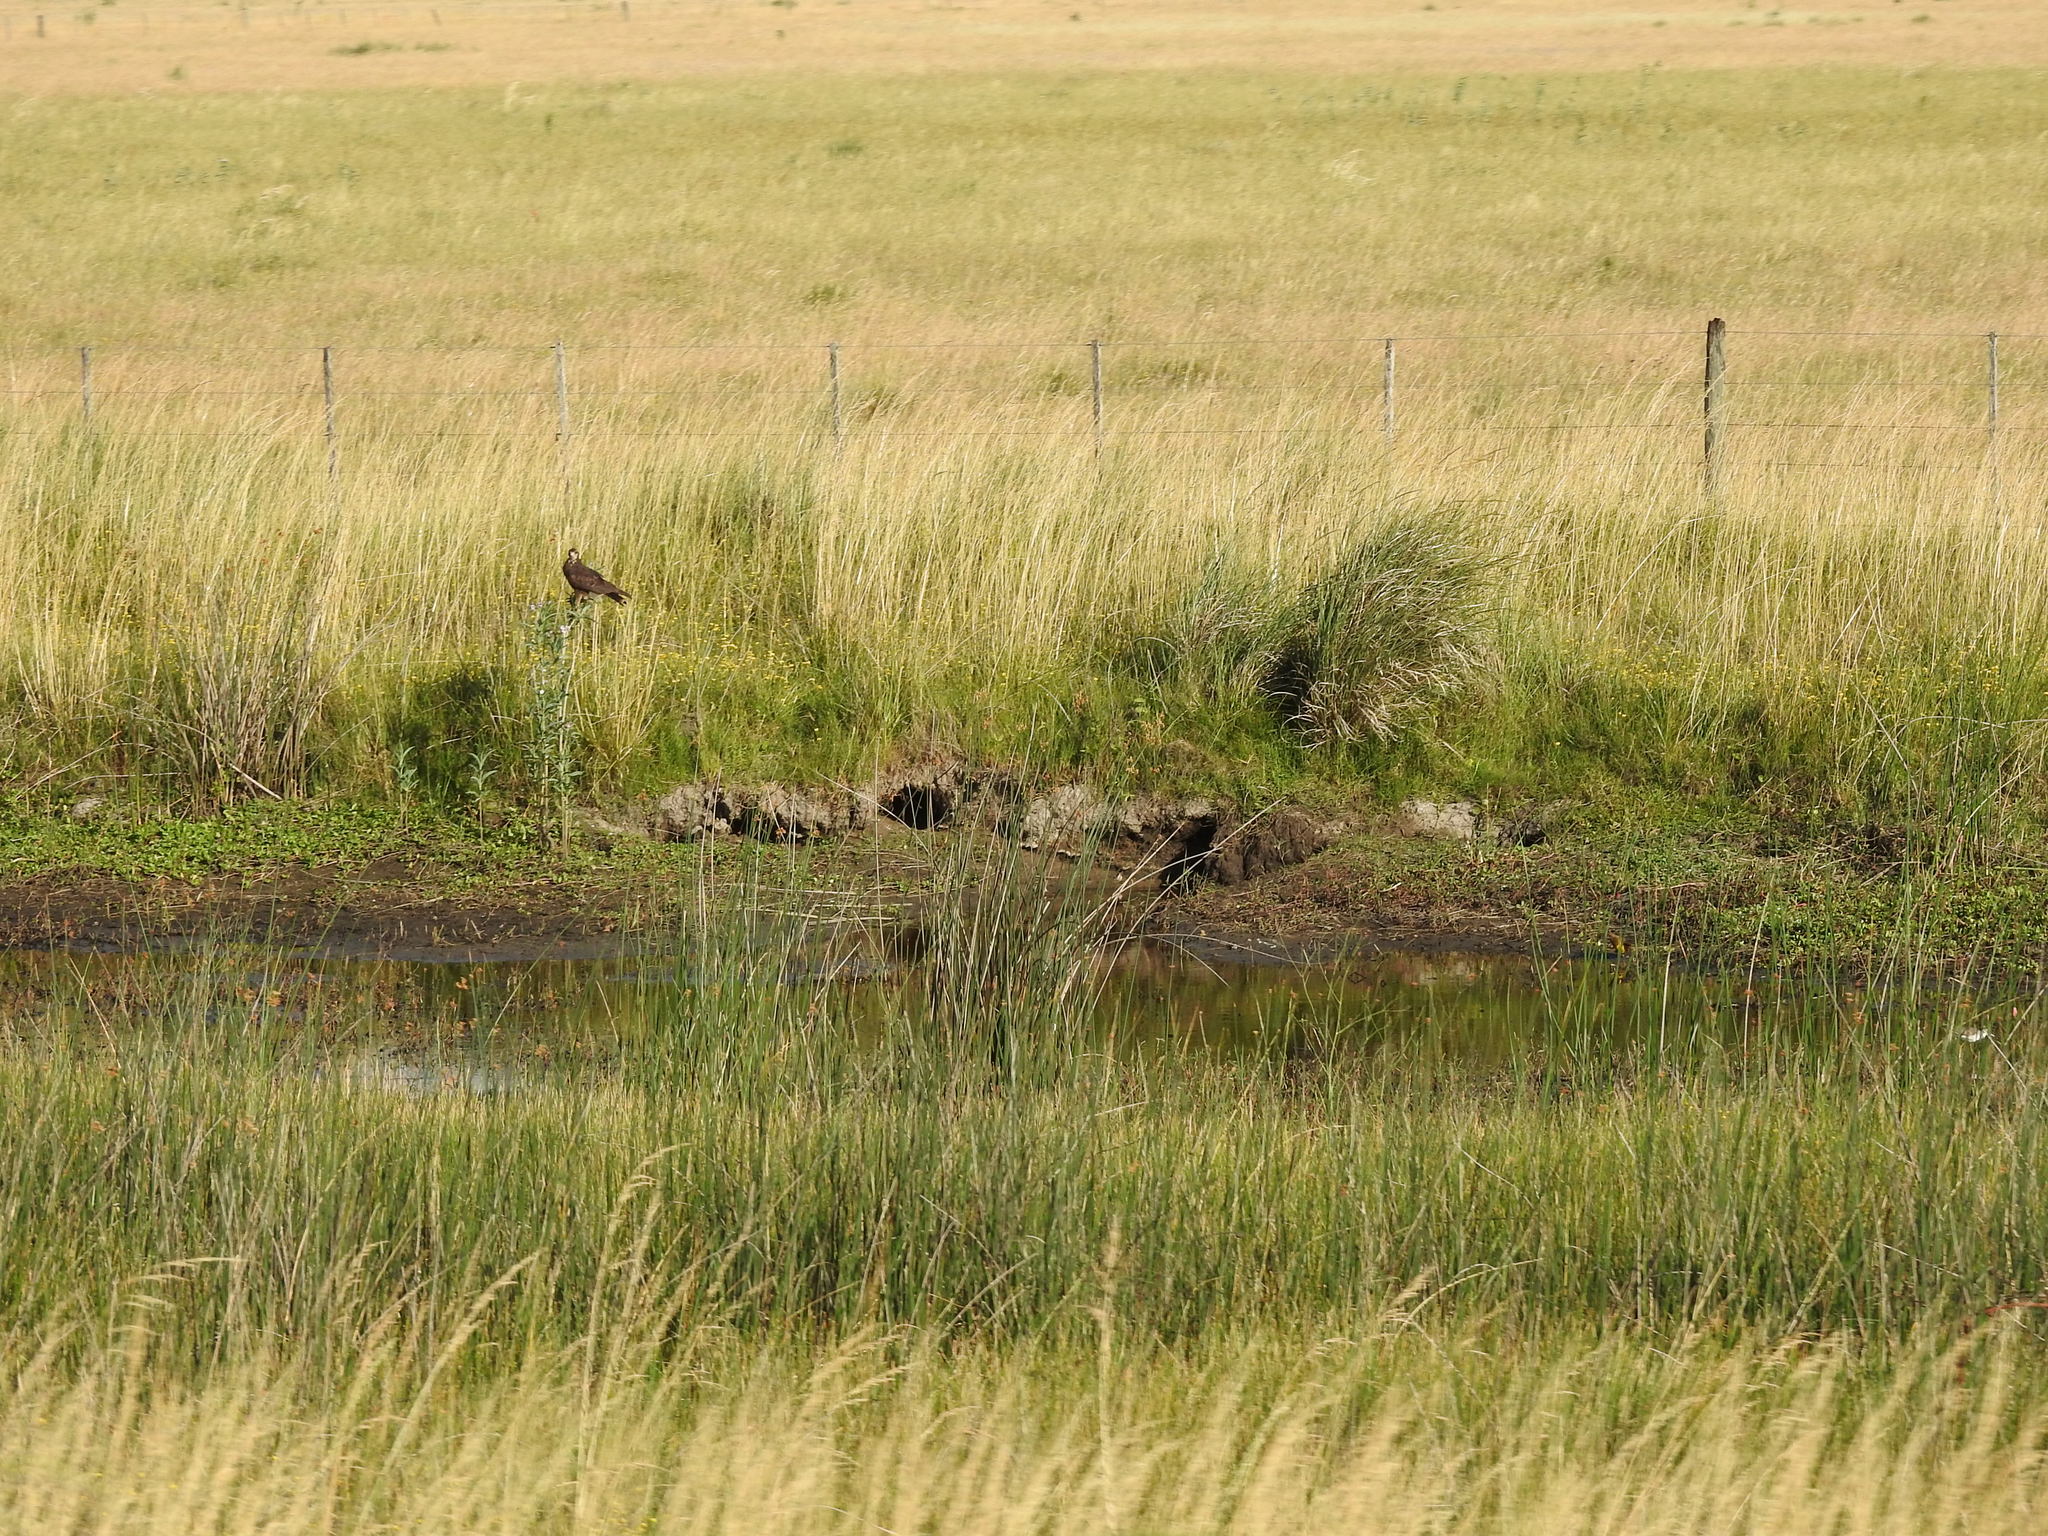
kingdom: Animalia
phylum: Chordata
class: Aves
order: Accipitriformes
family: Accipitridae
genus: Rostrhamus
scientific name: Rostrhamus sociabilis
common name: Snail kite
